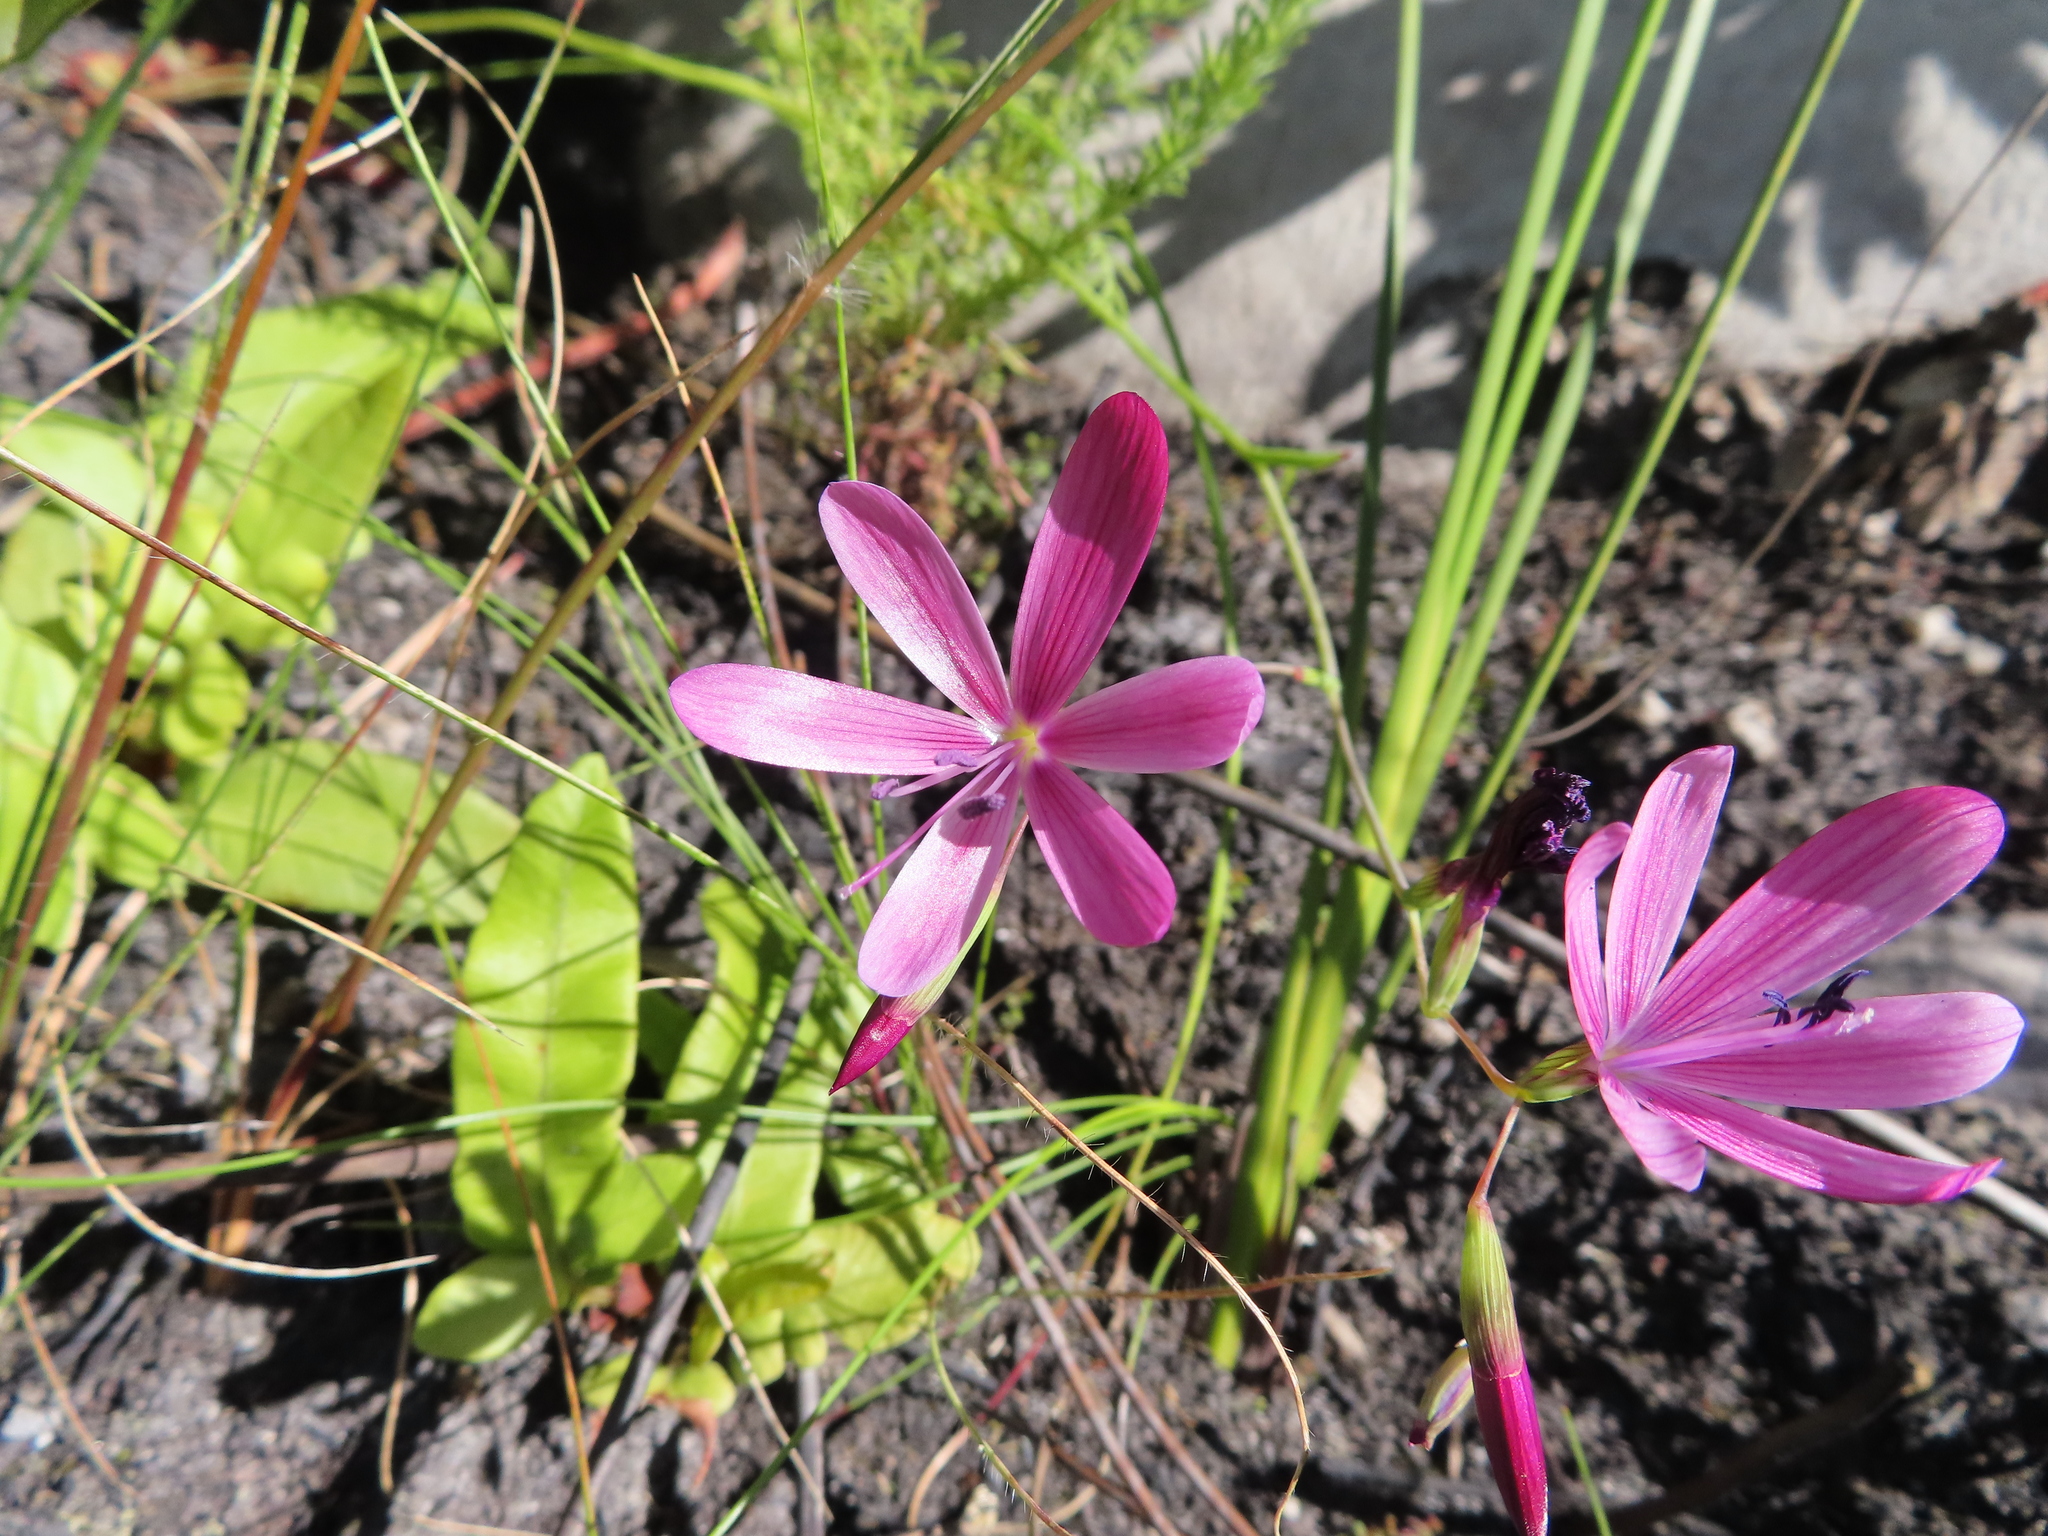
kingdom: Plantae
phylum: Tracheophyta
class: Liliopsida
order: Asparagales
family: Iridaceae
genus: Geissorhiza
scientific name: Geissorhiza burchellii
